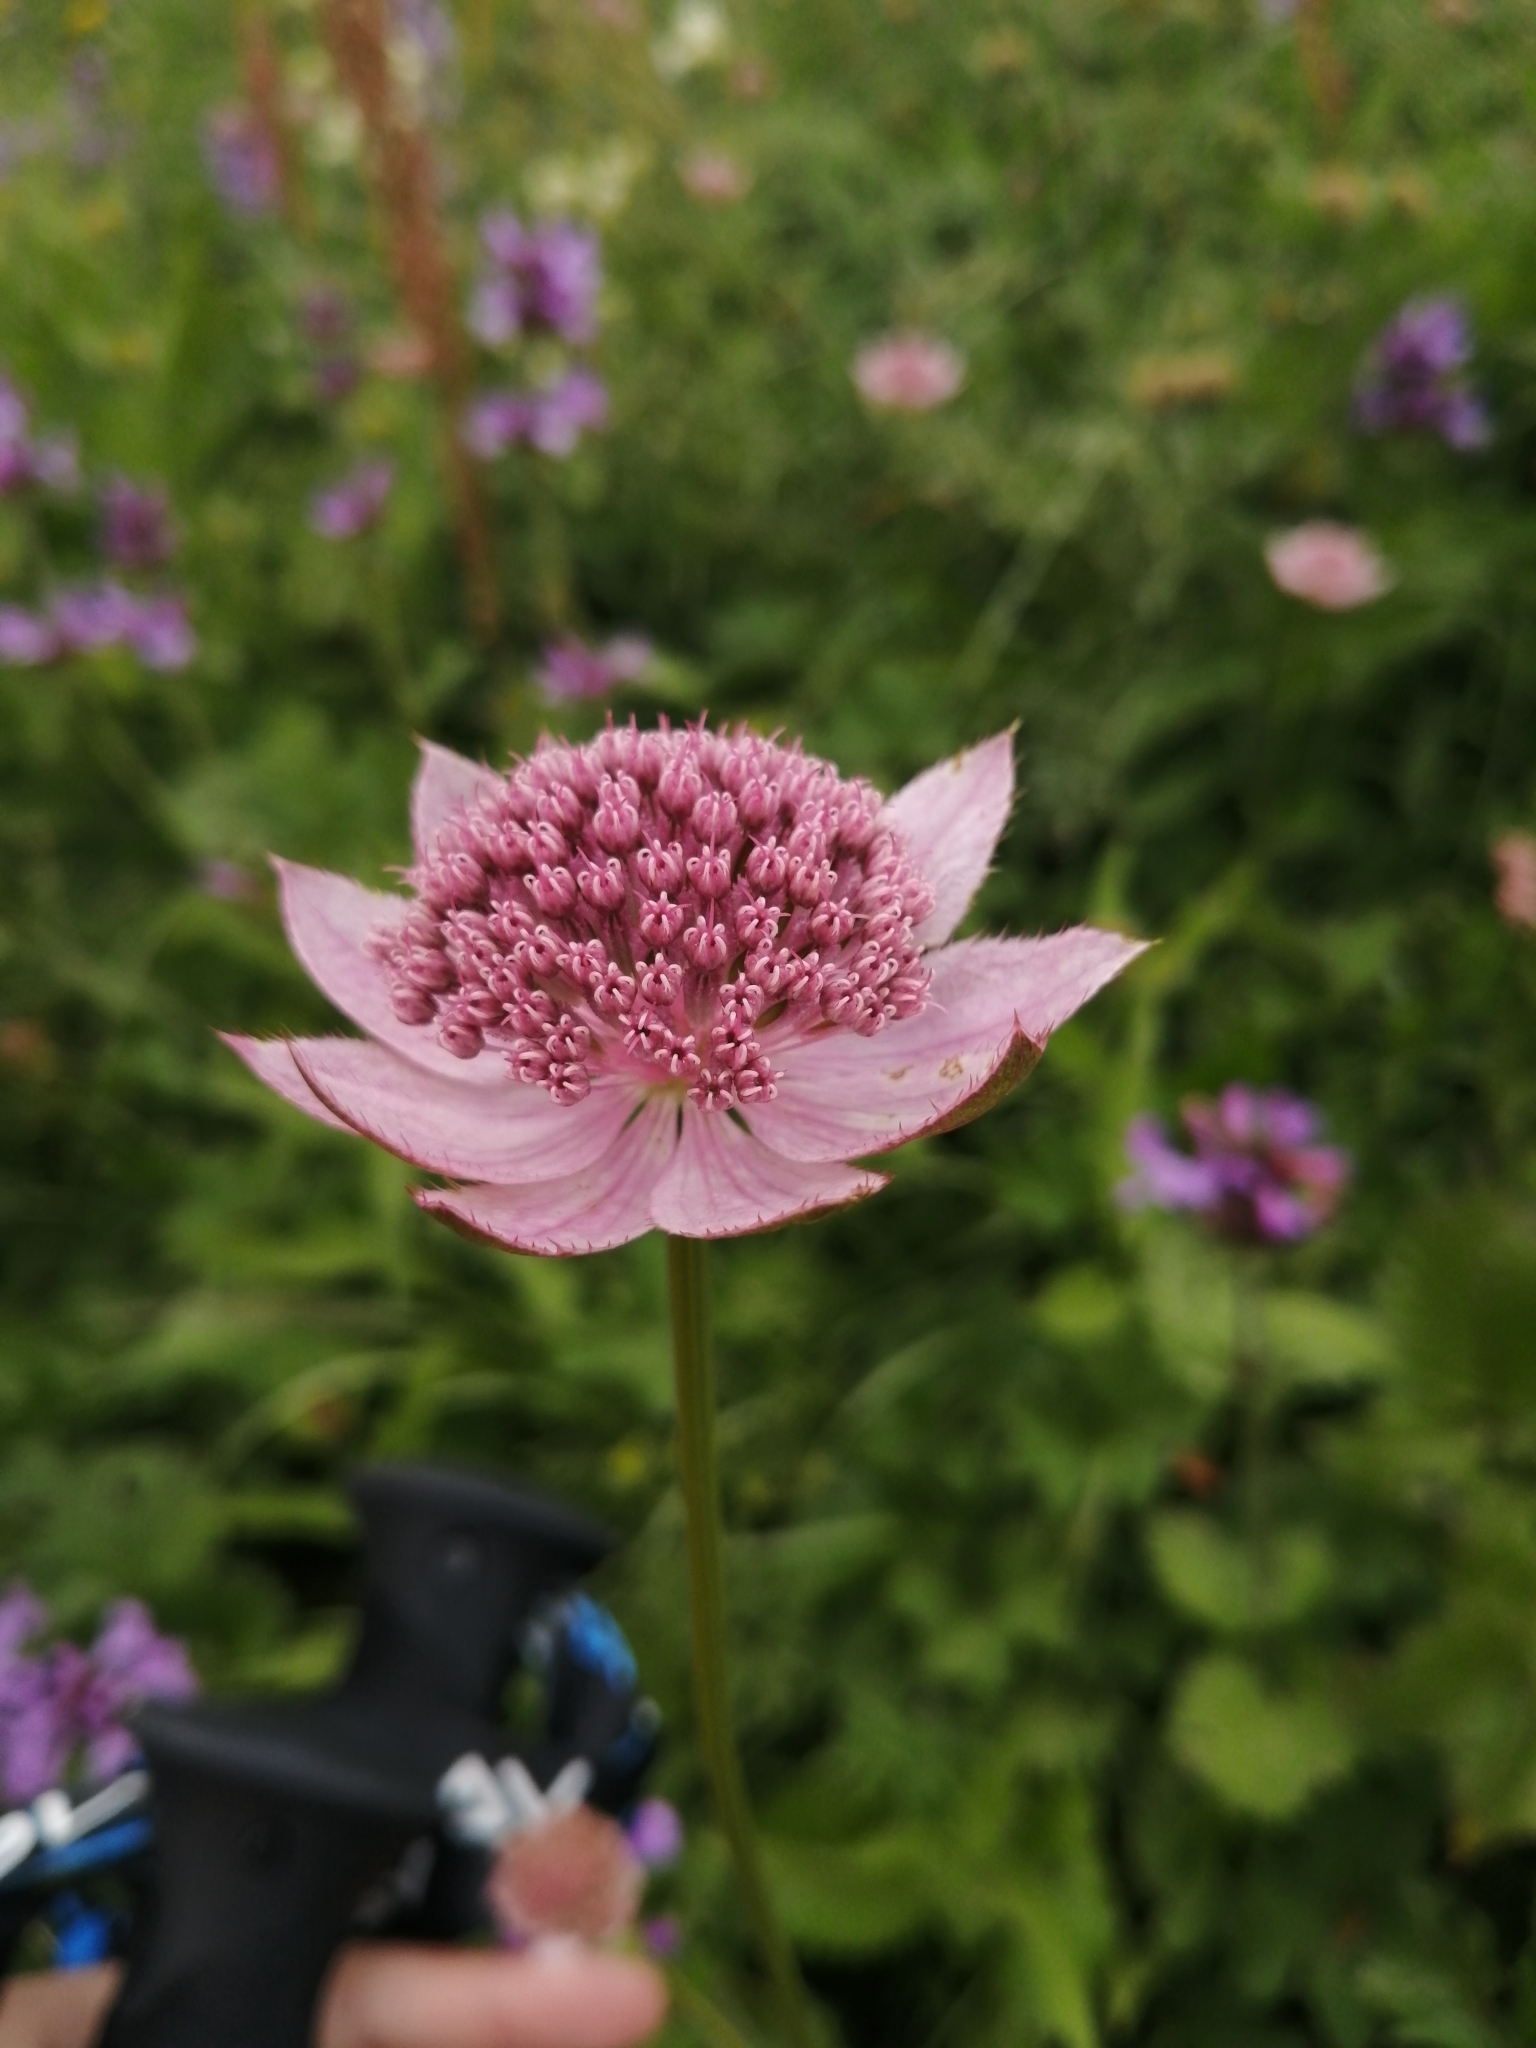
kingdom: Plantae
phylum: Tracheophyta
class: Magnoliopsida
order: Apiales
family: Apiaceae
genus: Astrantia
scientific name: Astrantia maxima
